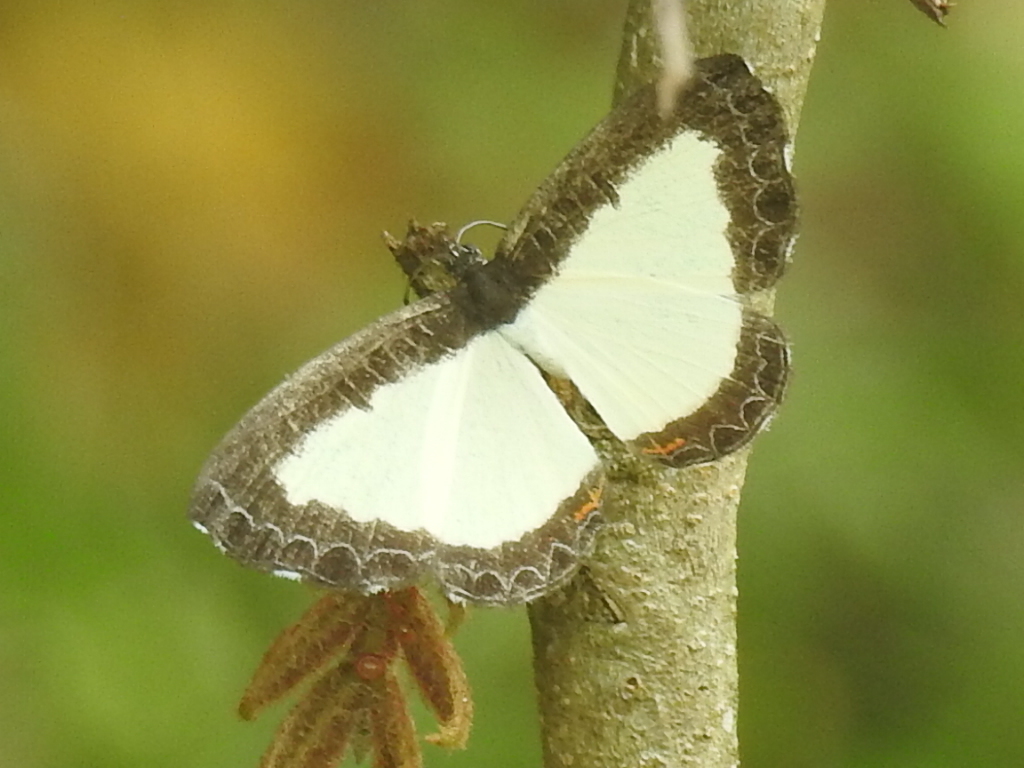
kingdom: Animalia
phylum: Arthropoda
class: Insecta
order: Lepidoptera
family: Riodinidae
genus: Juditha
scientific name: Juditha caucana
